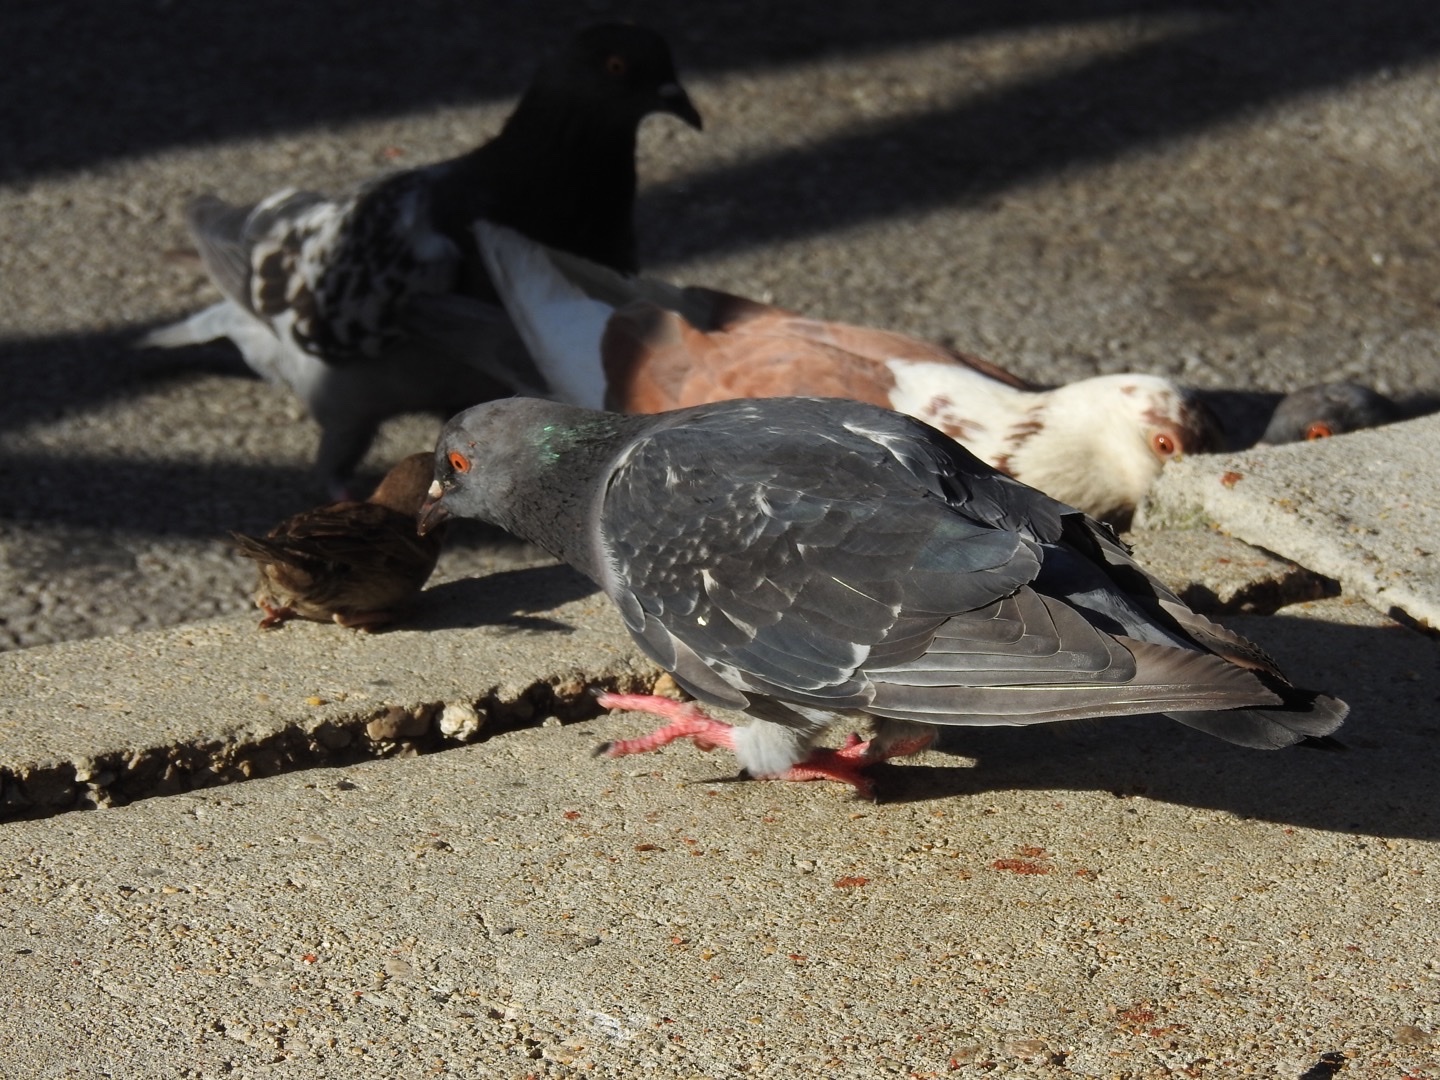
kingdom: Animalia
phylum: Chordata
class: Aves
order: Columbiformes
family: Columbidae
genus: Columba
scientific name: Columba livia
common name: Rock pigeon
